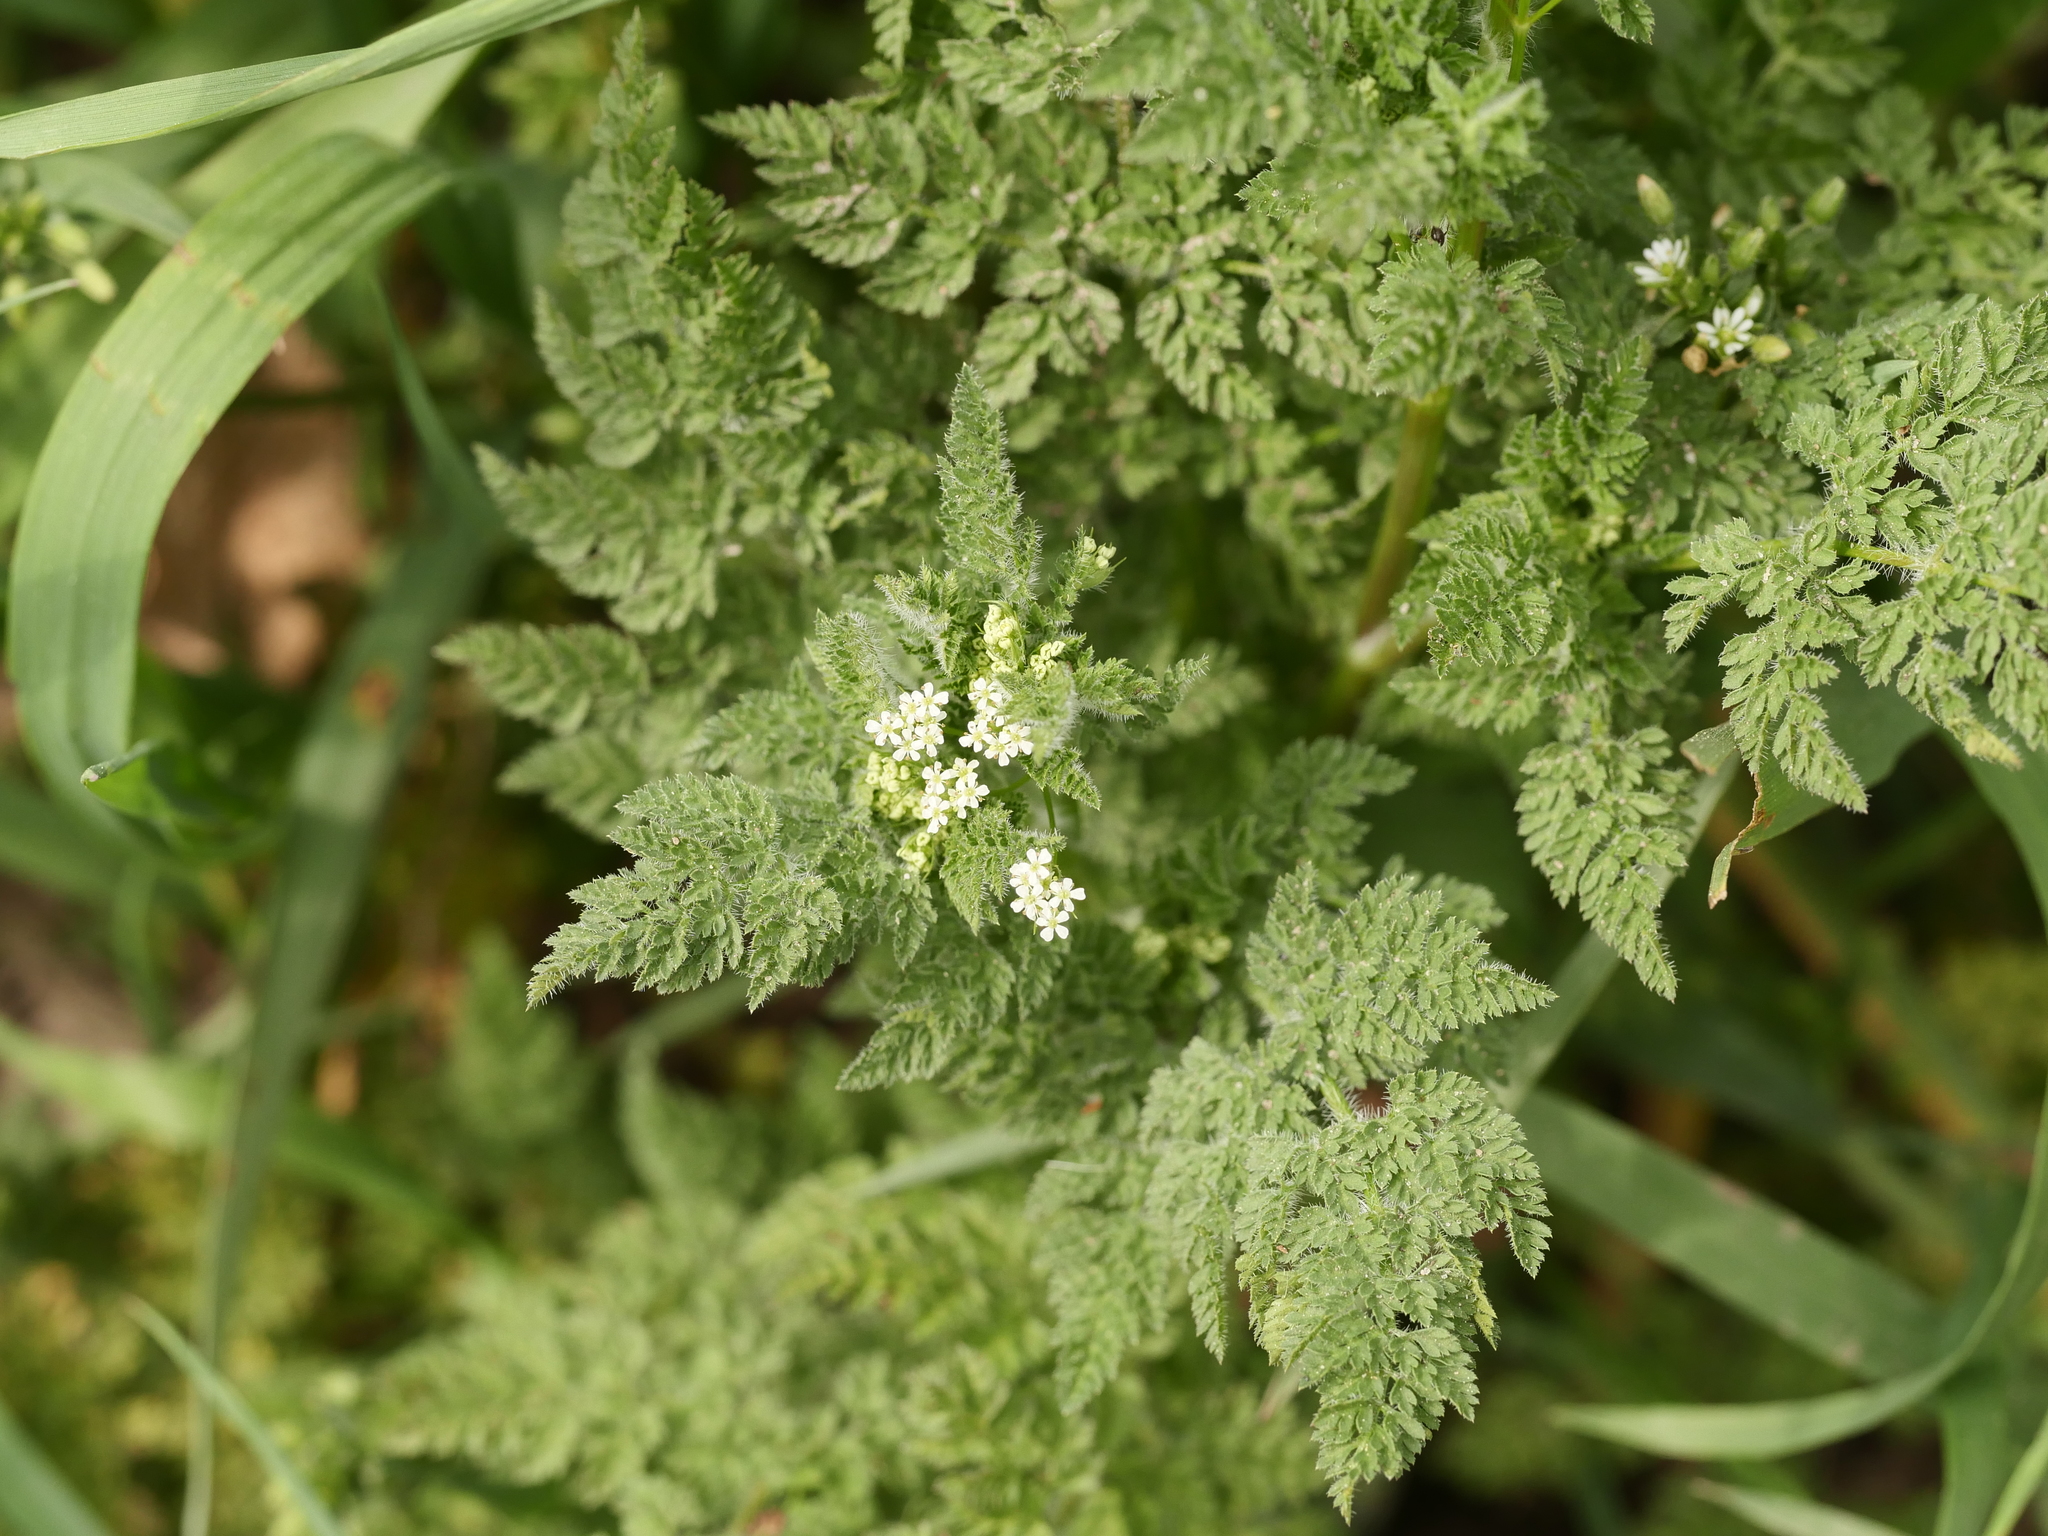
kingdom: Plantae
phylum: Tracheophyta
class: Magnoliopsida
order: Apiales
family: Apiaceae
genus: Anthriscus
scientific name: Anthriscus caucalis
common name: Bur chervil
